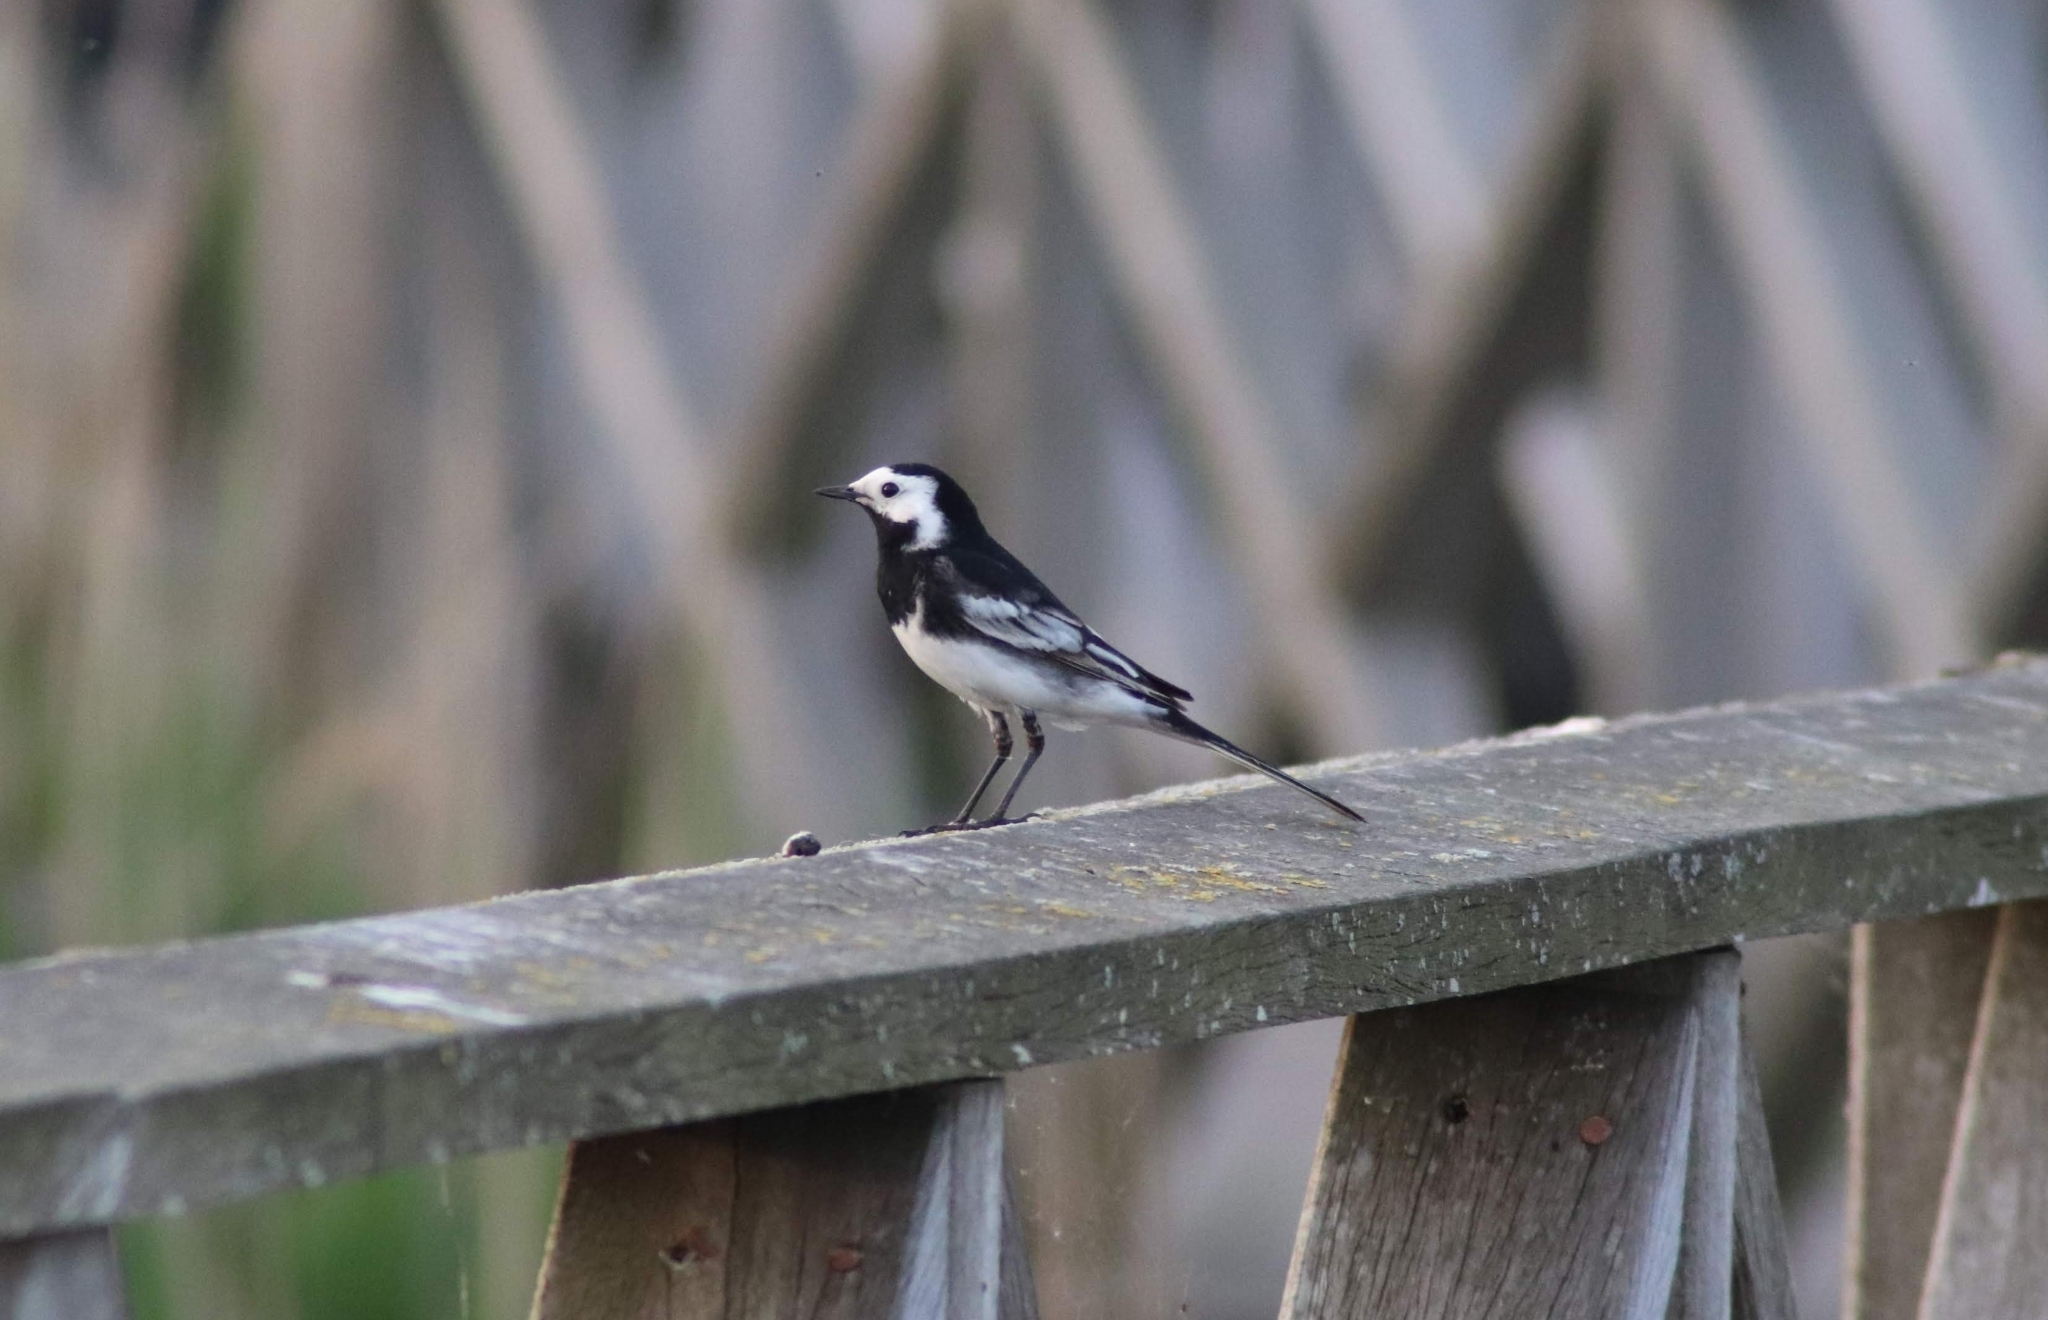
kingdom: Animalia
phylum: Chordata
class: Aves
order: Passeriformes
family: Motacillidae
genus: Motacilla
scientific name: Motacilla alba
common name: White wagtail
